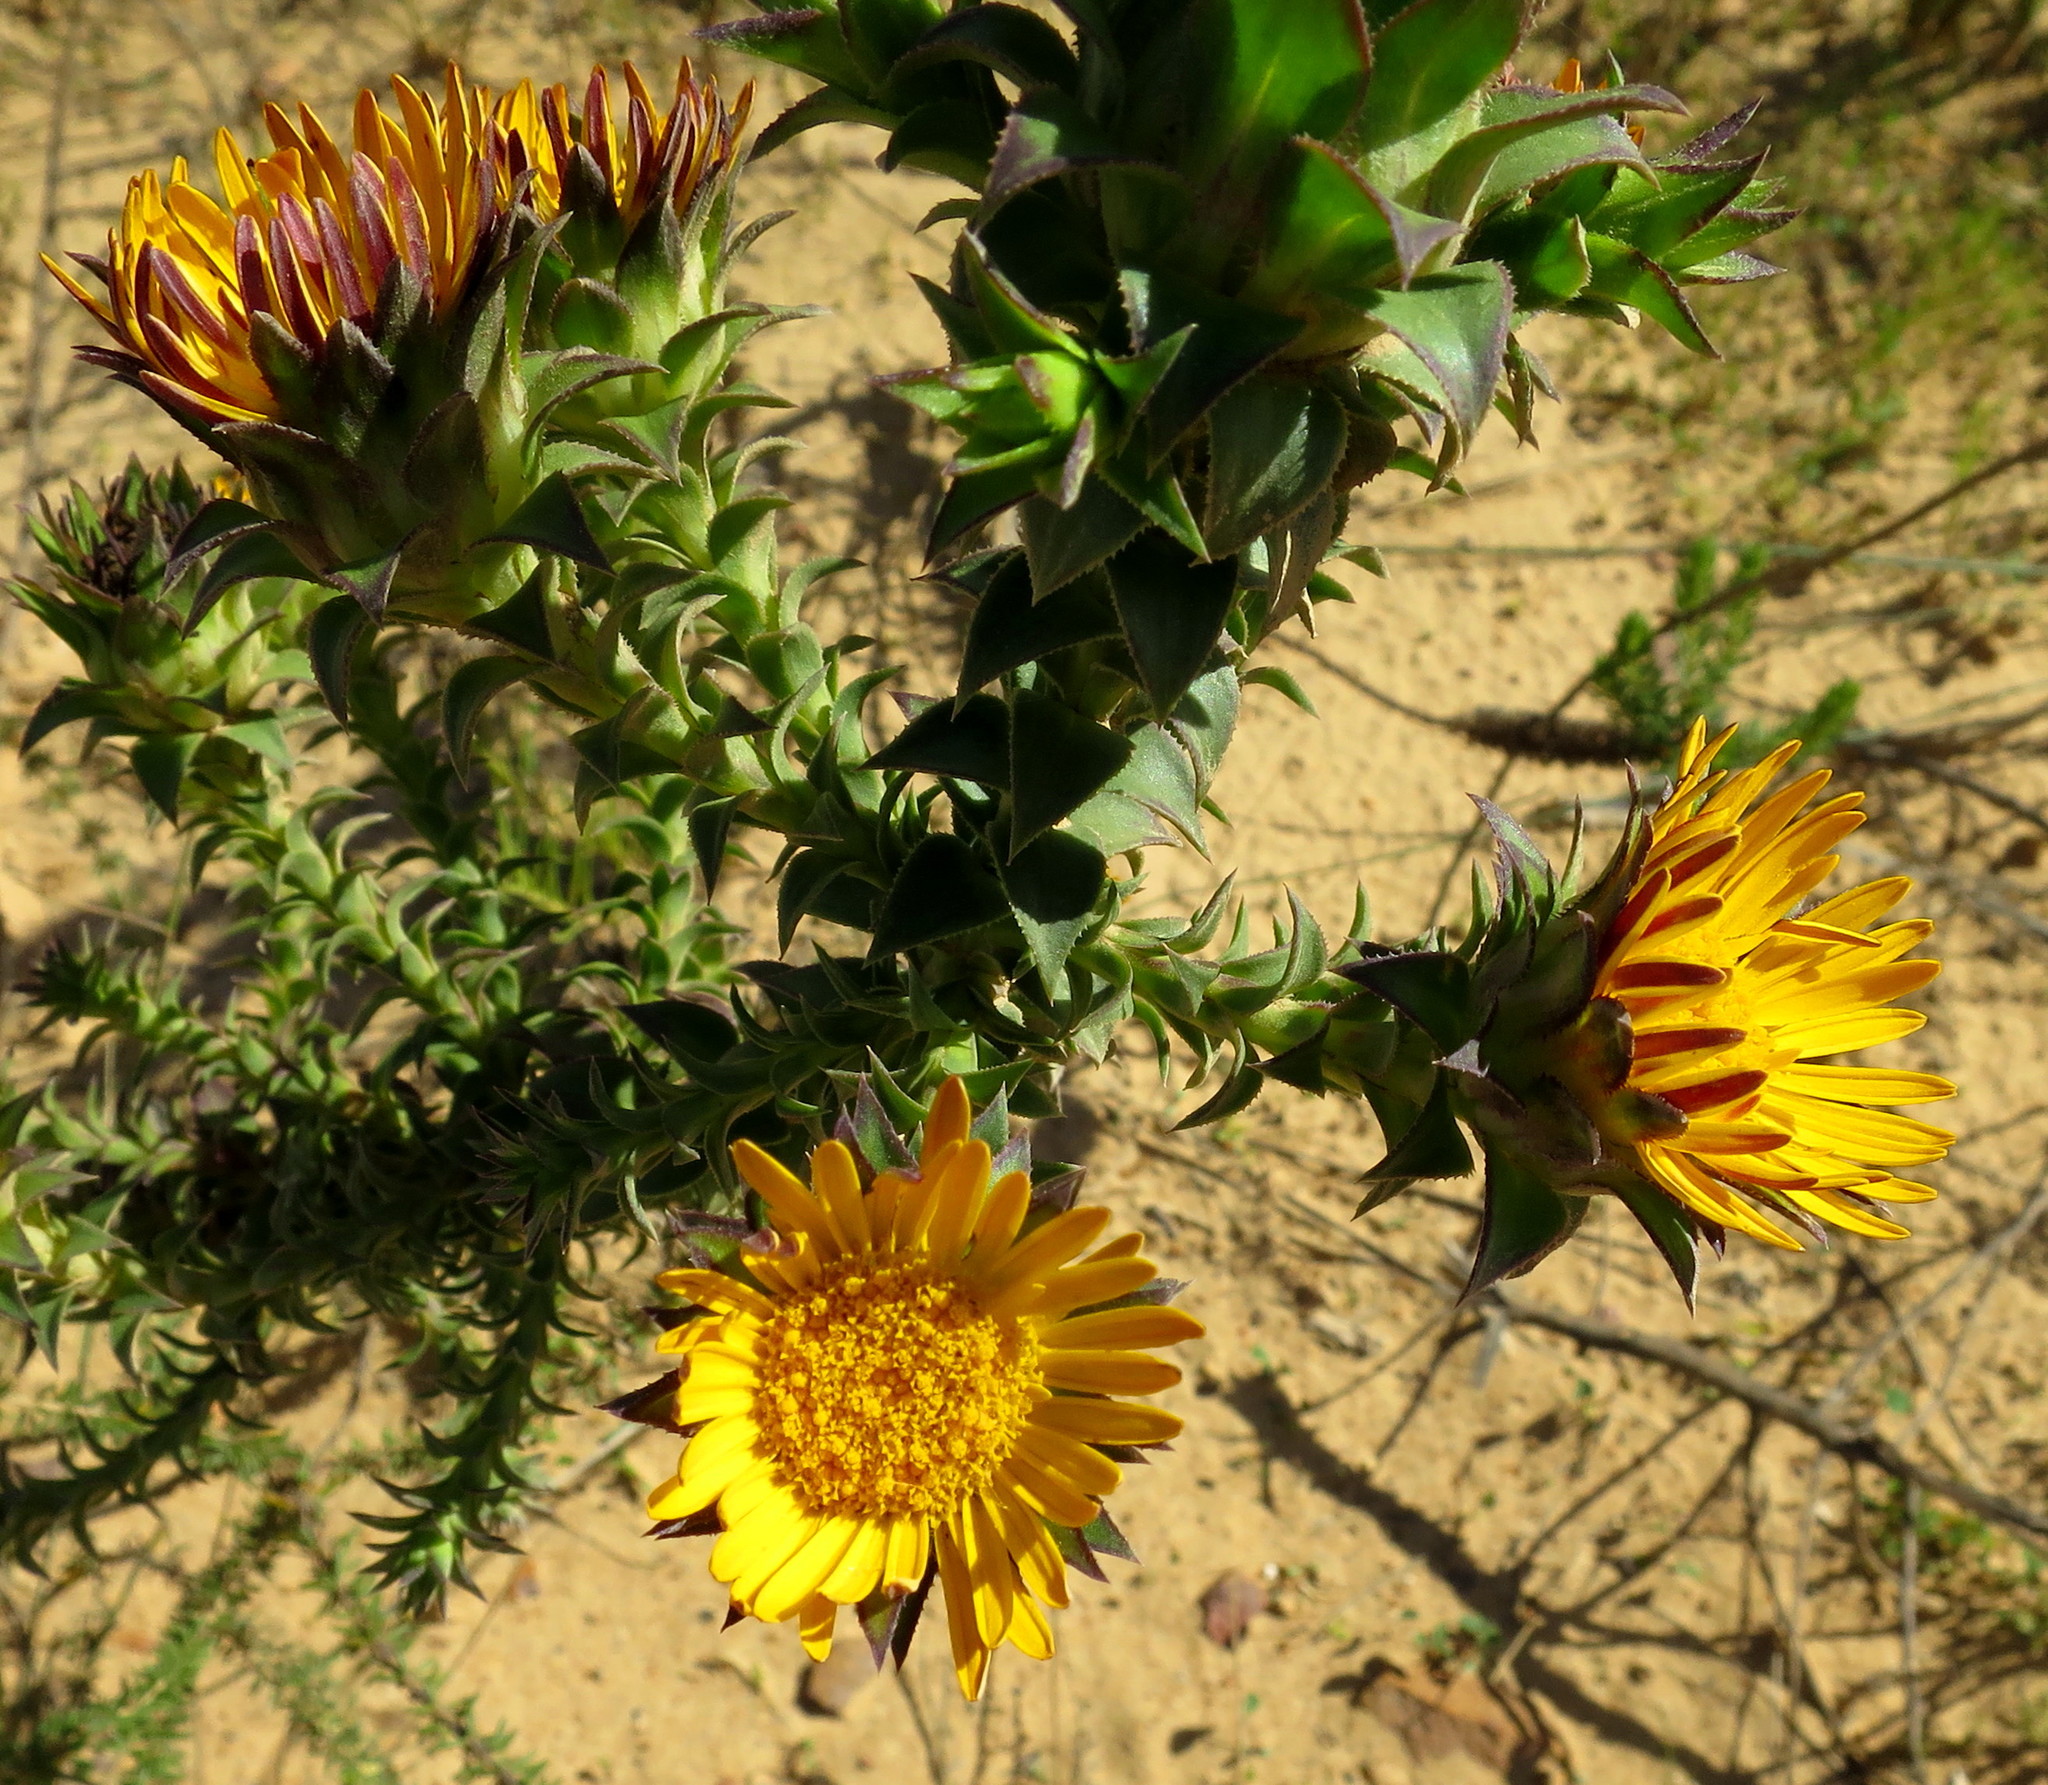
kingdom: Plantae
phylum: Tracheophyta
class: Magnoliopsida
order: Asterales
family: Asteraceae
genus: Oedera
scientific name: Oedera imbricata
